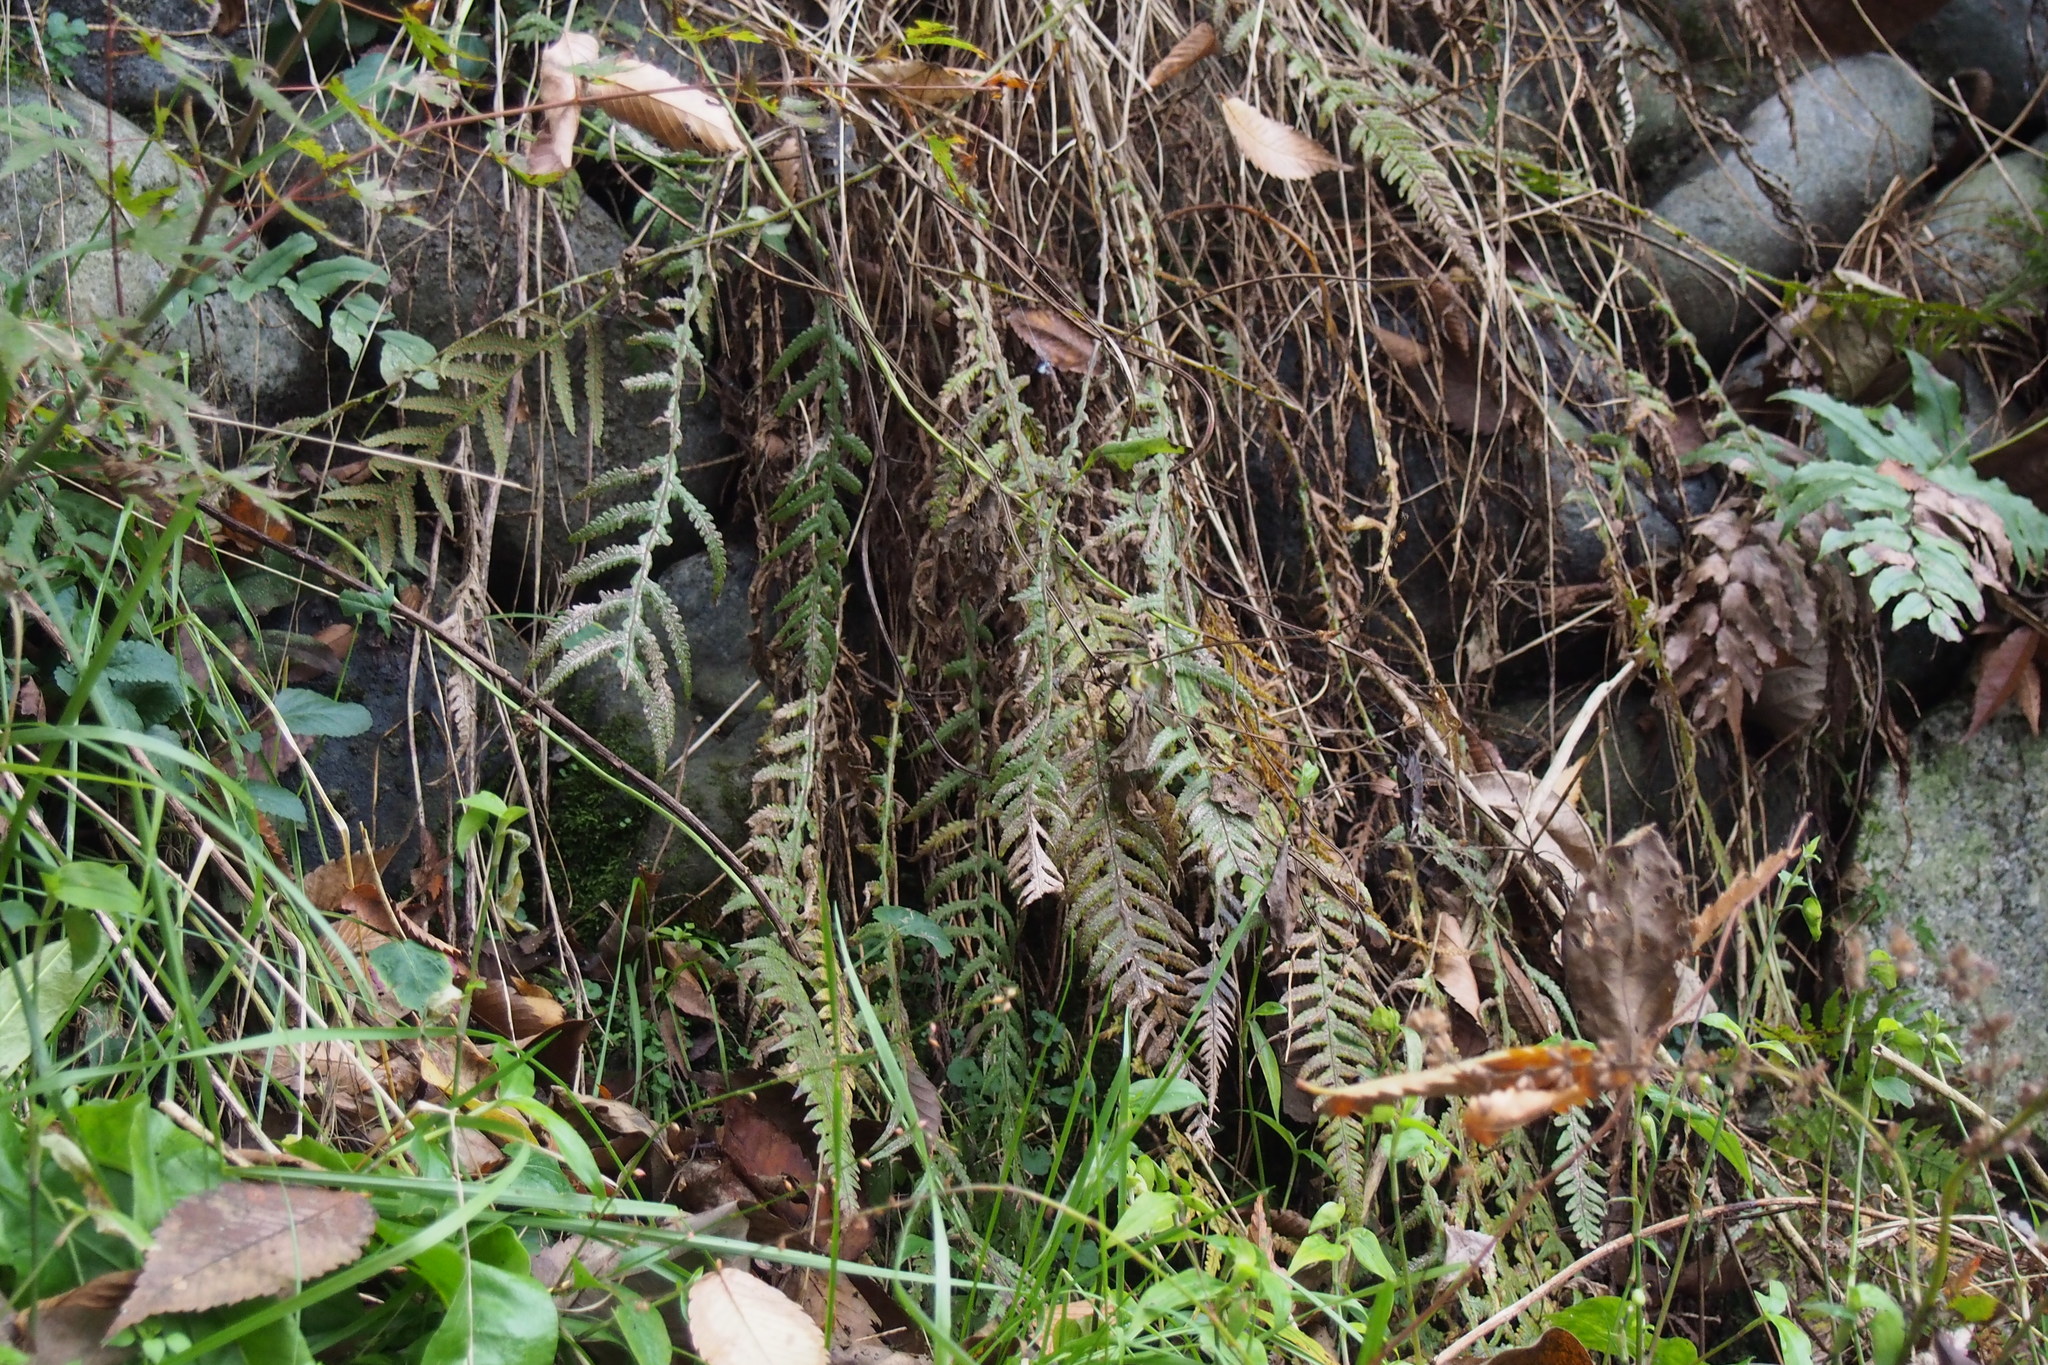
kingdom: Plantae
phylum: Tracheophyta
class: Polypodiopsida
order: Polypodiales
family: Thelypteridaceae
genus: Phegopteris
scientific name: Phegopteris decursive-pinnata
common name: Japanese beech fern
